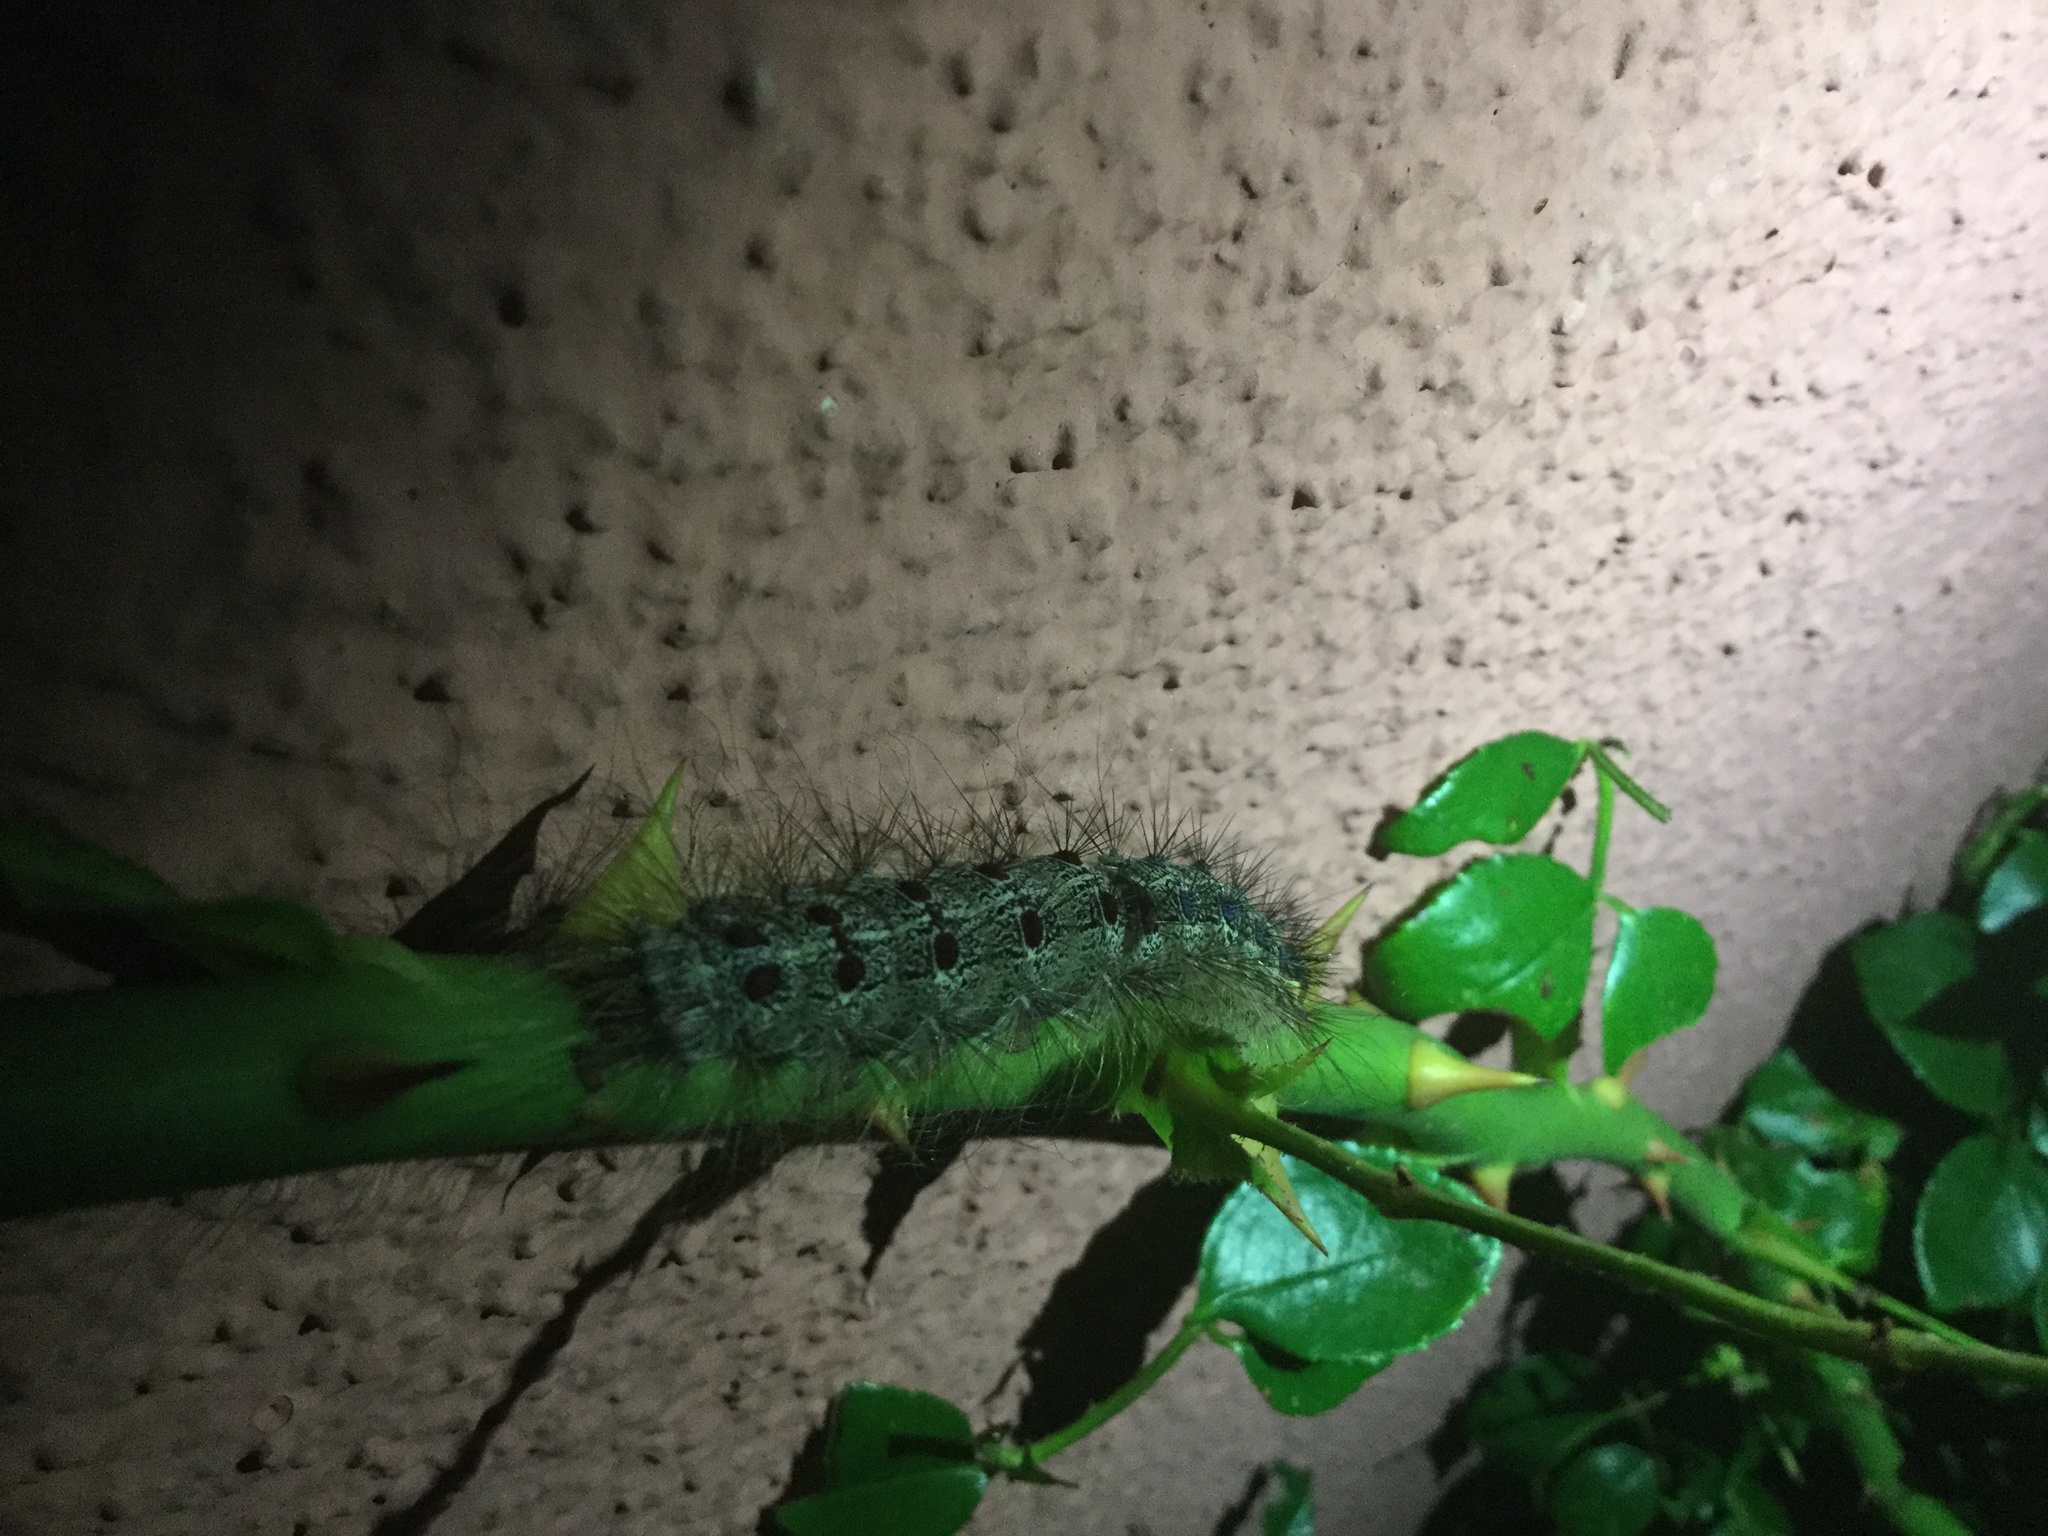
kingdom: Animalia
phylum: Arthropoda
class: Insecta
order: Lepidoptera
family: Erebidae
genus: Lymantria
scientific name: Lymantria dispar
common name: Gypsy moth
